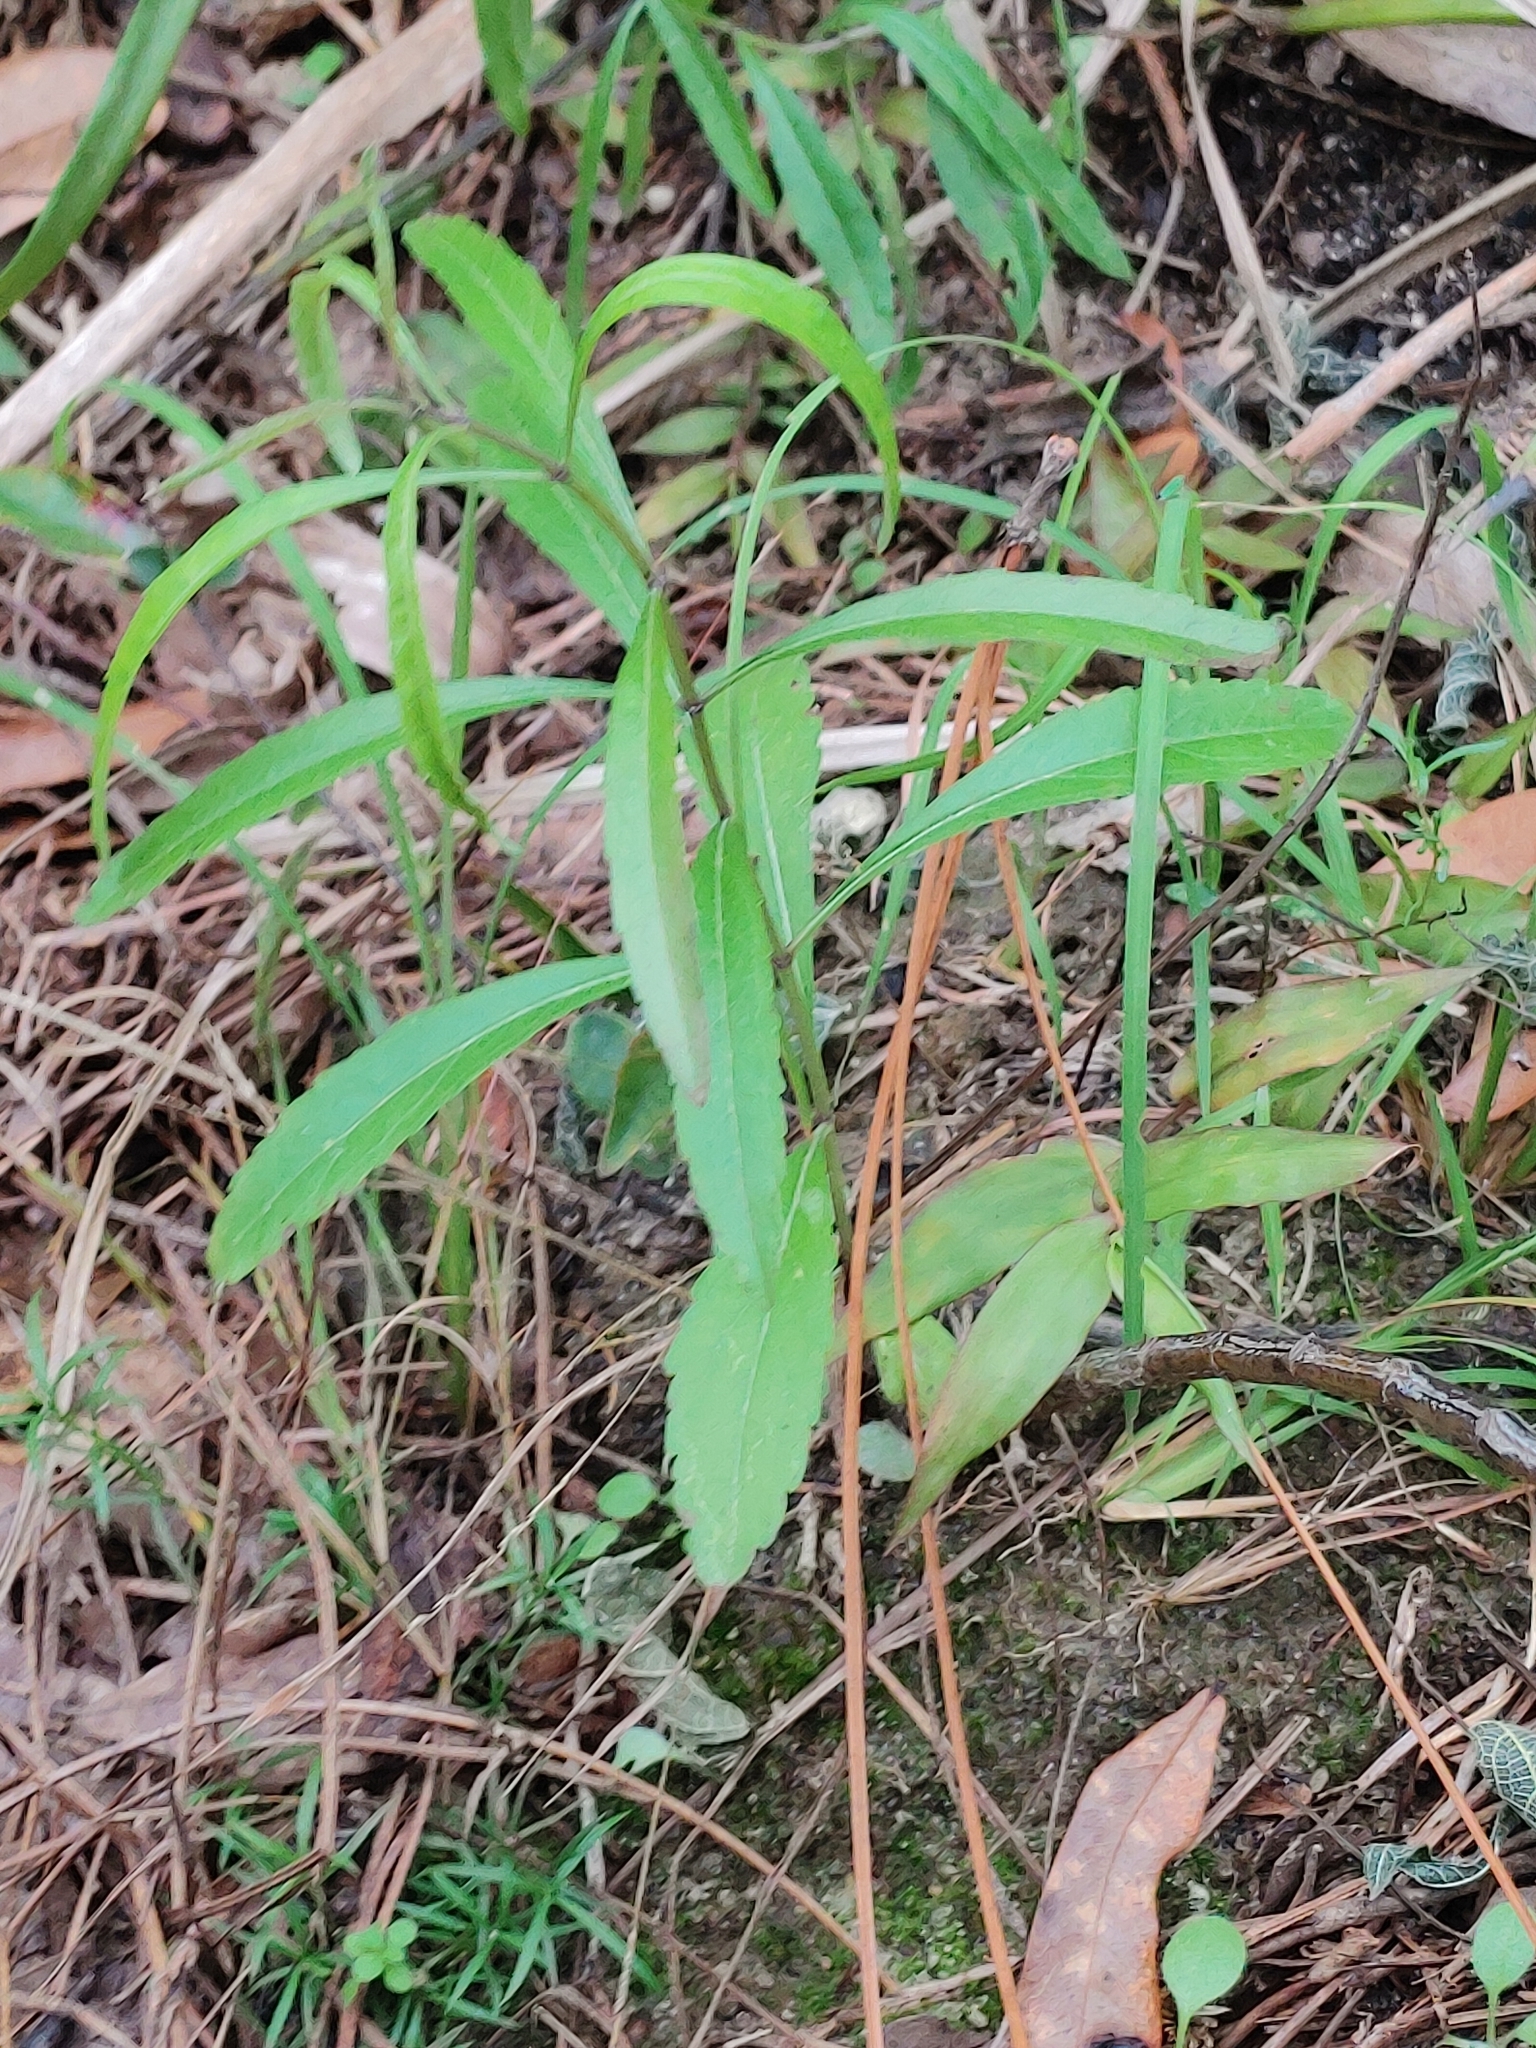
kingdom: Plantae
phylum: Tracheophyta
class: Magnoliopsida
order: Lamiales
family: Lamiaceae
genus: Salvia
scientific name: Salvia azurea
